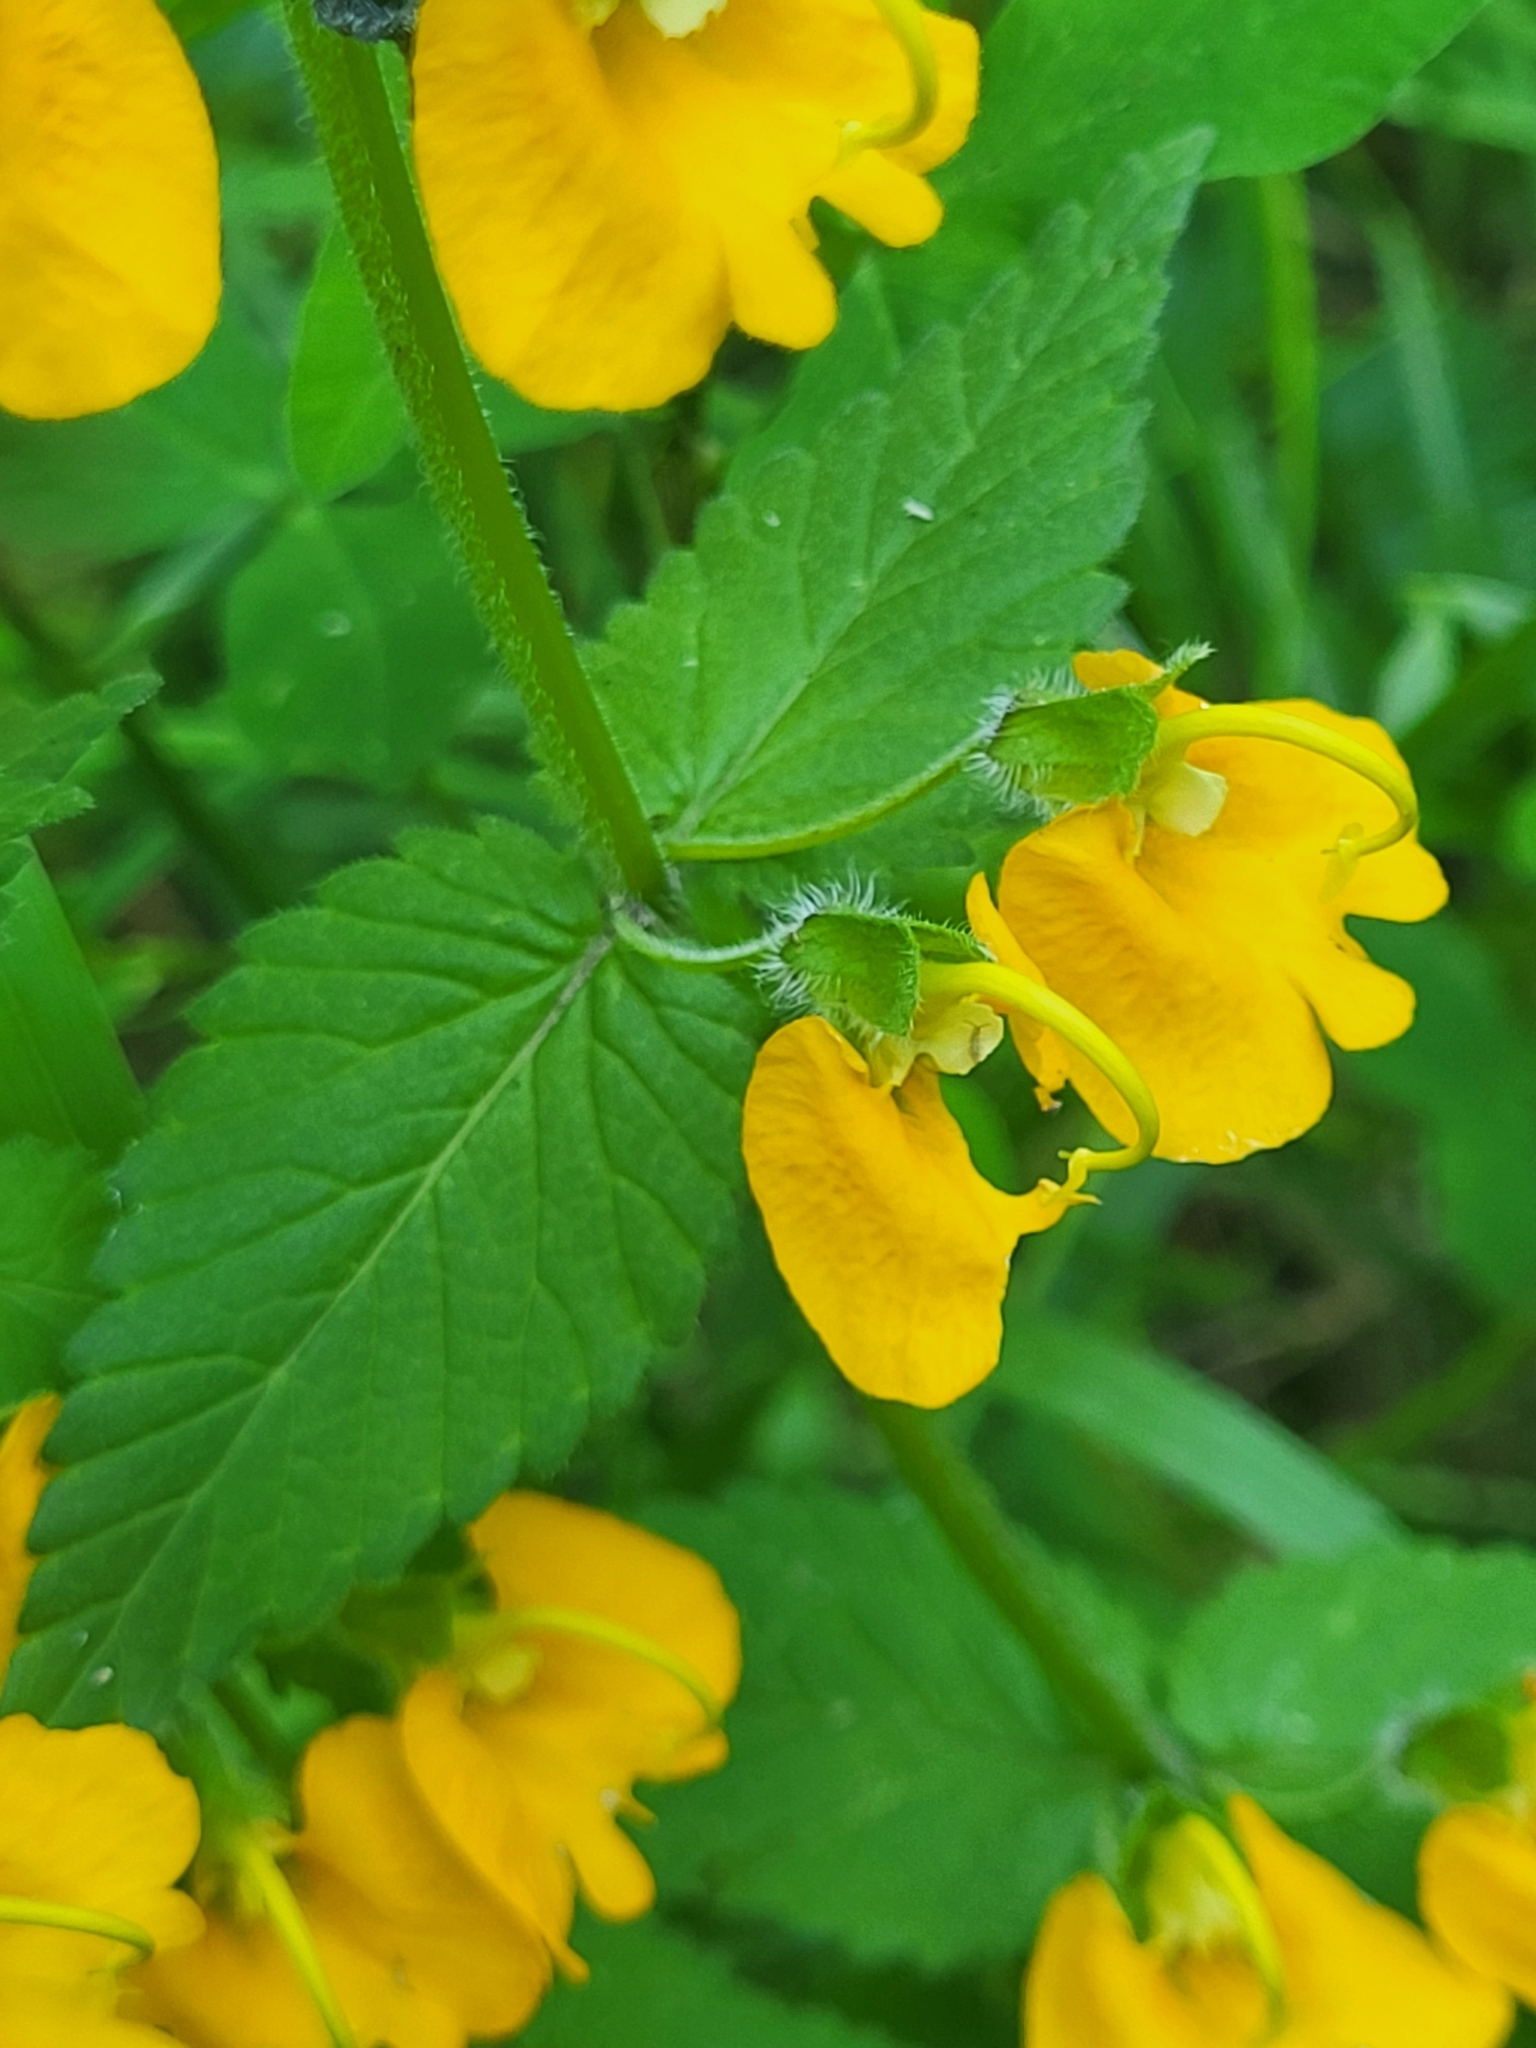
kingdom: Plantae
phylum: Tracheophyta
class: Magnoliopsida
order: Lamiales
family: Orobanchaceae
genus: Rhynchocorys
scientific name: Rhynchocorys orientalis
